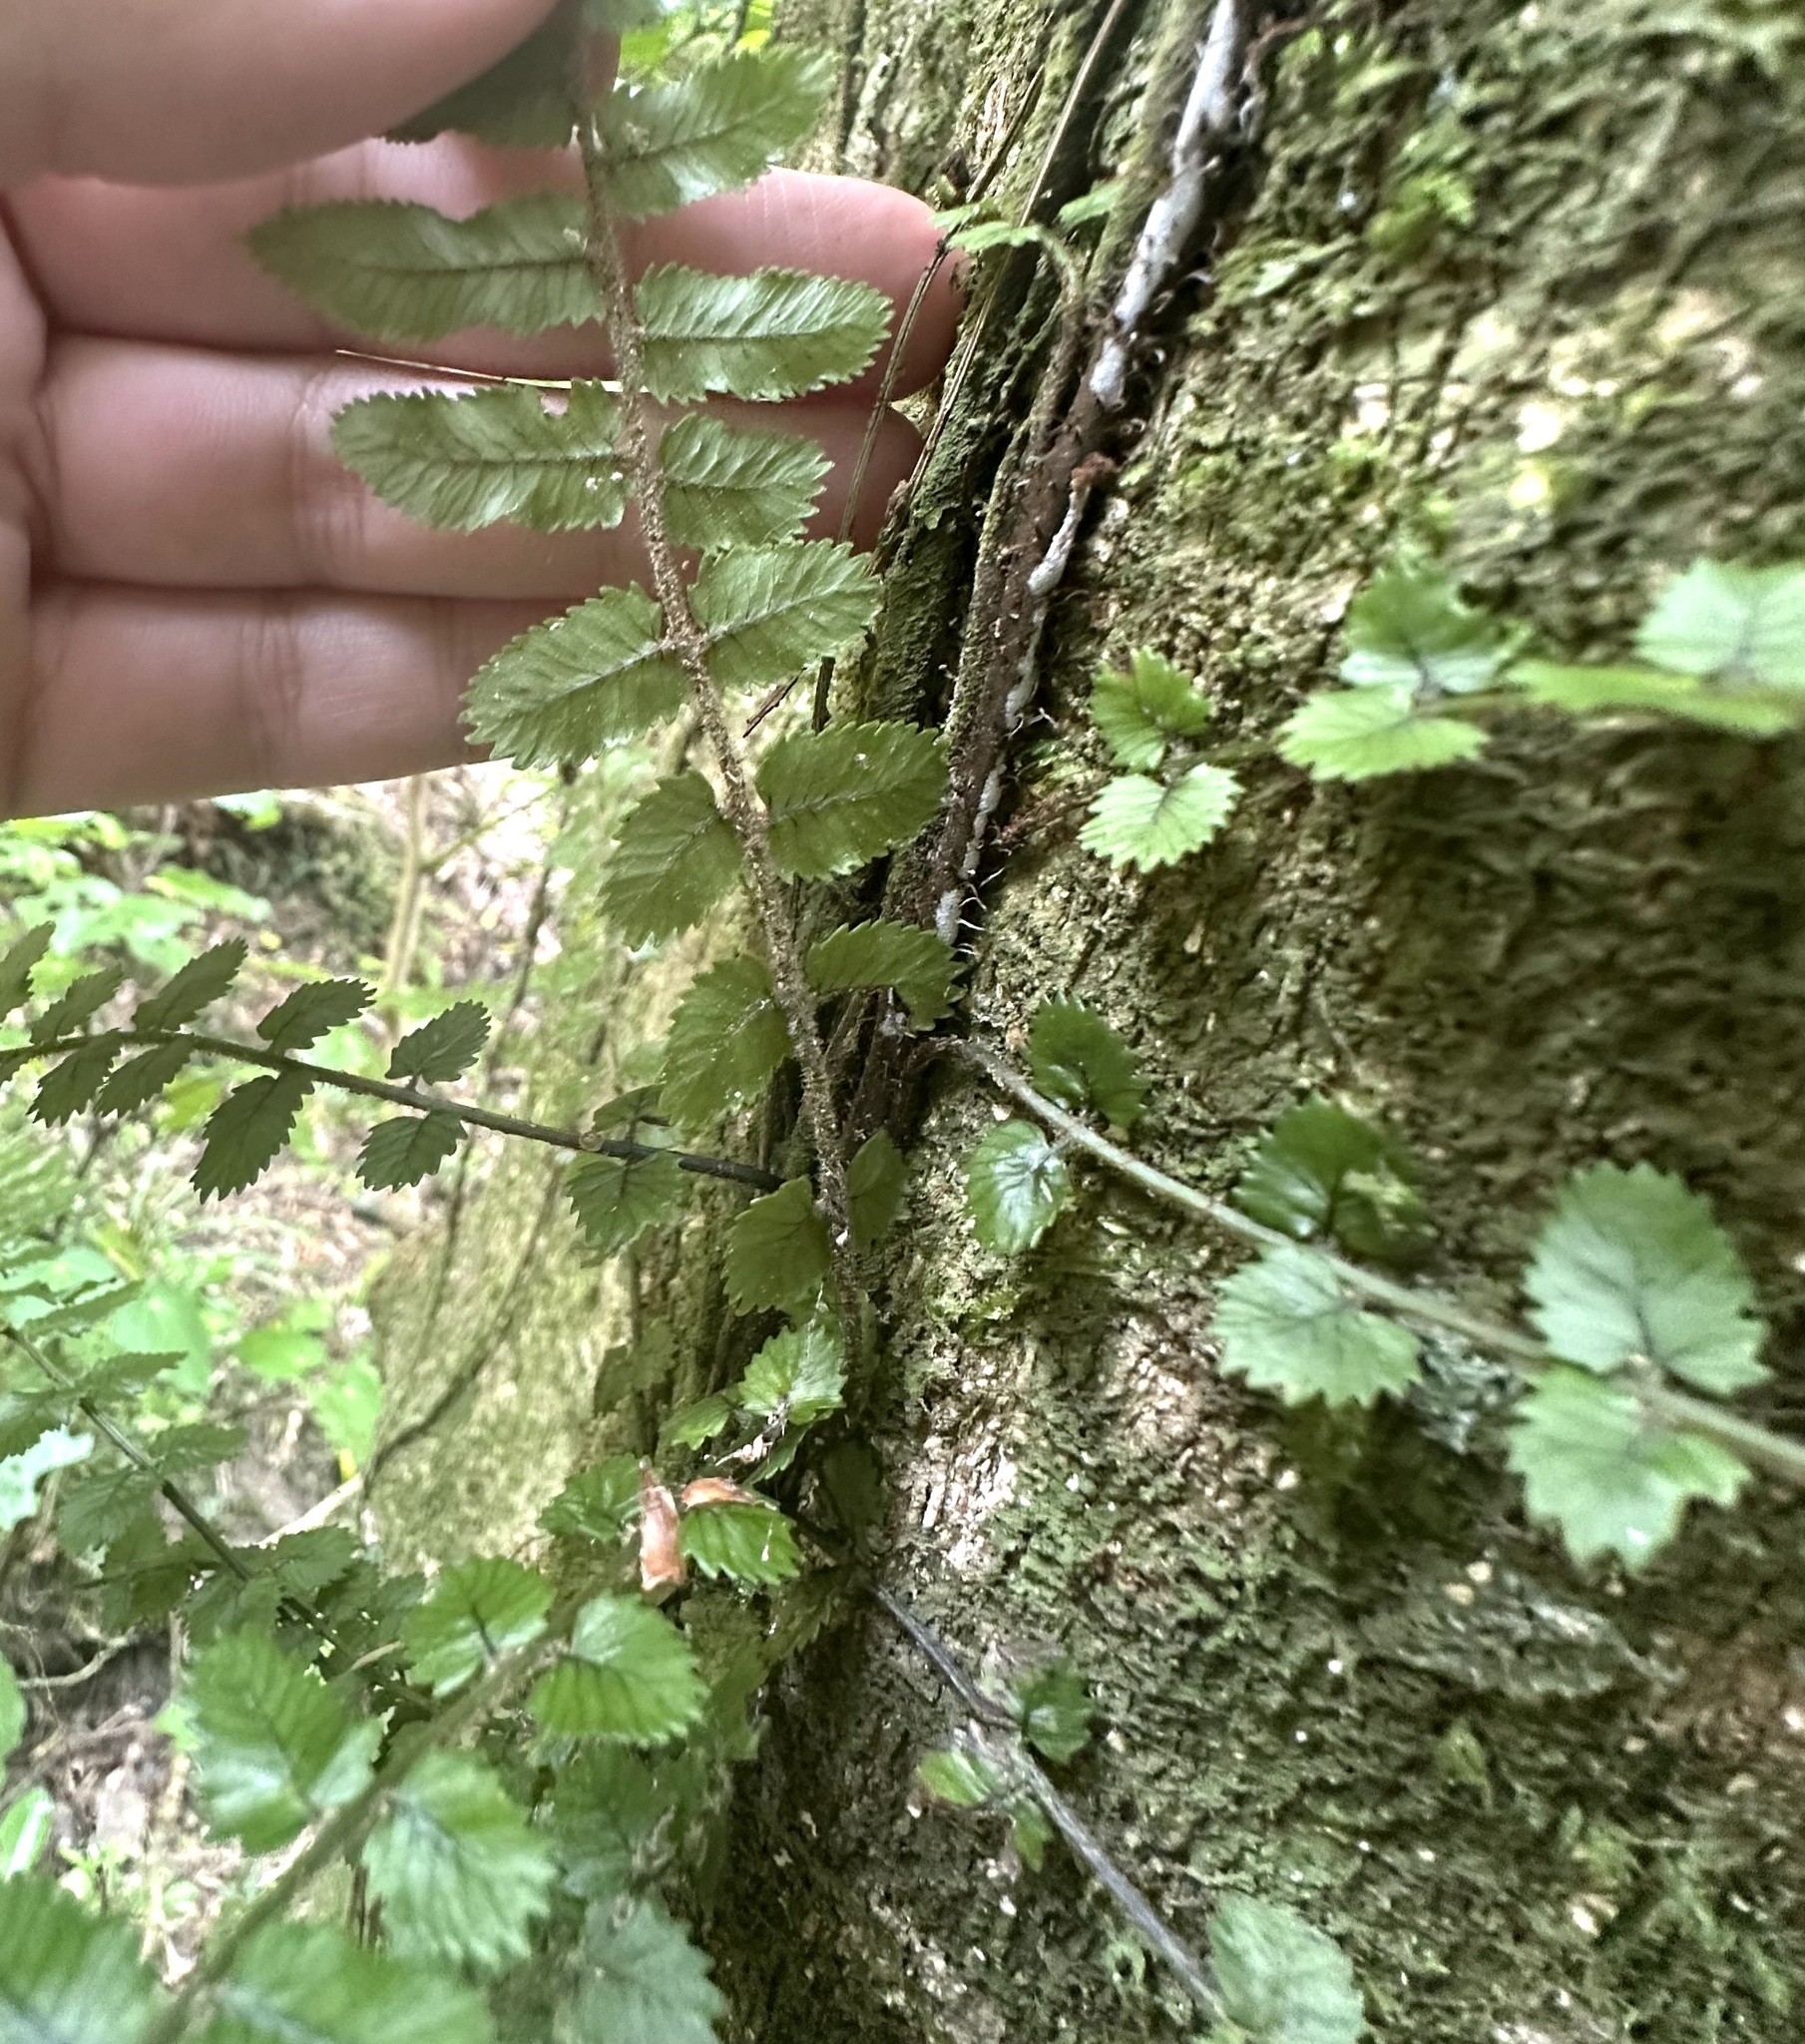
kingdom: Plantae
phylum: Tracheophyta
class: Polypodiopsida
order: Polypodiales
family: Blechnaceae
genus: Icarus
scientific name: Icarus filiformis
